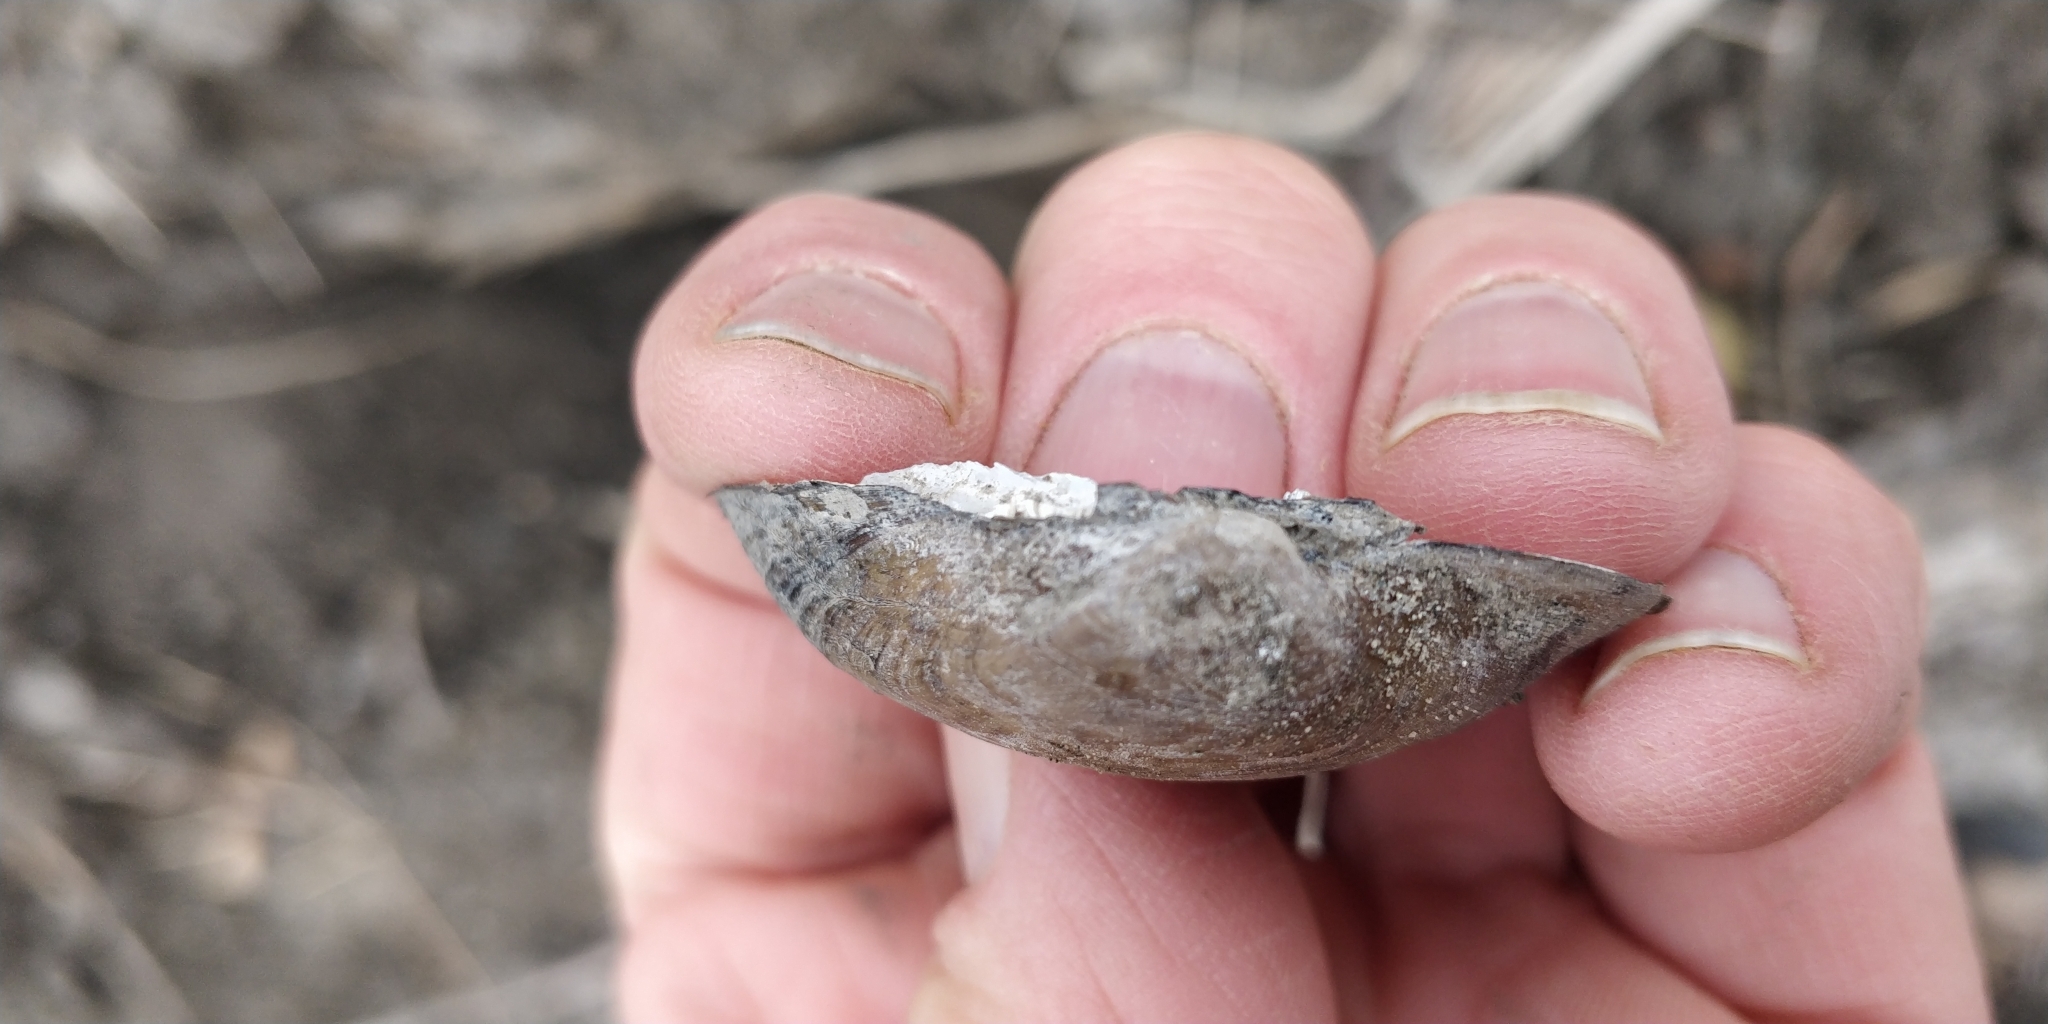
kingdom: Animalia
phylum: Mollusca
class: Bivalvia
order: Unionida
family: Unionidae
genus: Truncilla
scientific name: Truncilla truncata
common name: Deertoe
